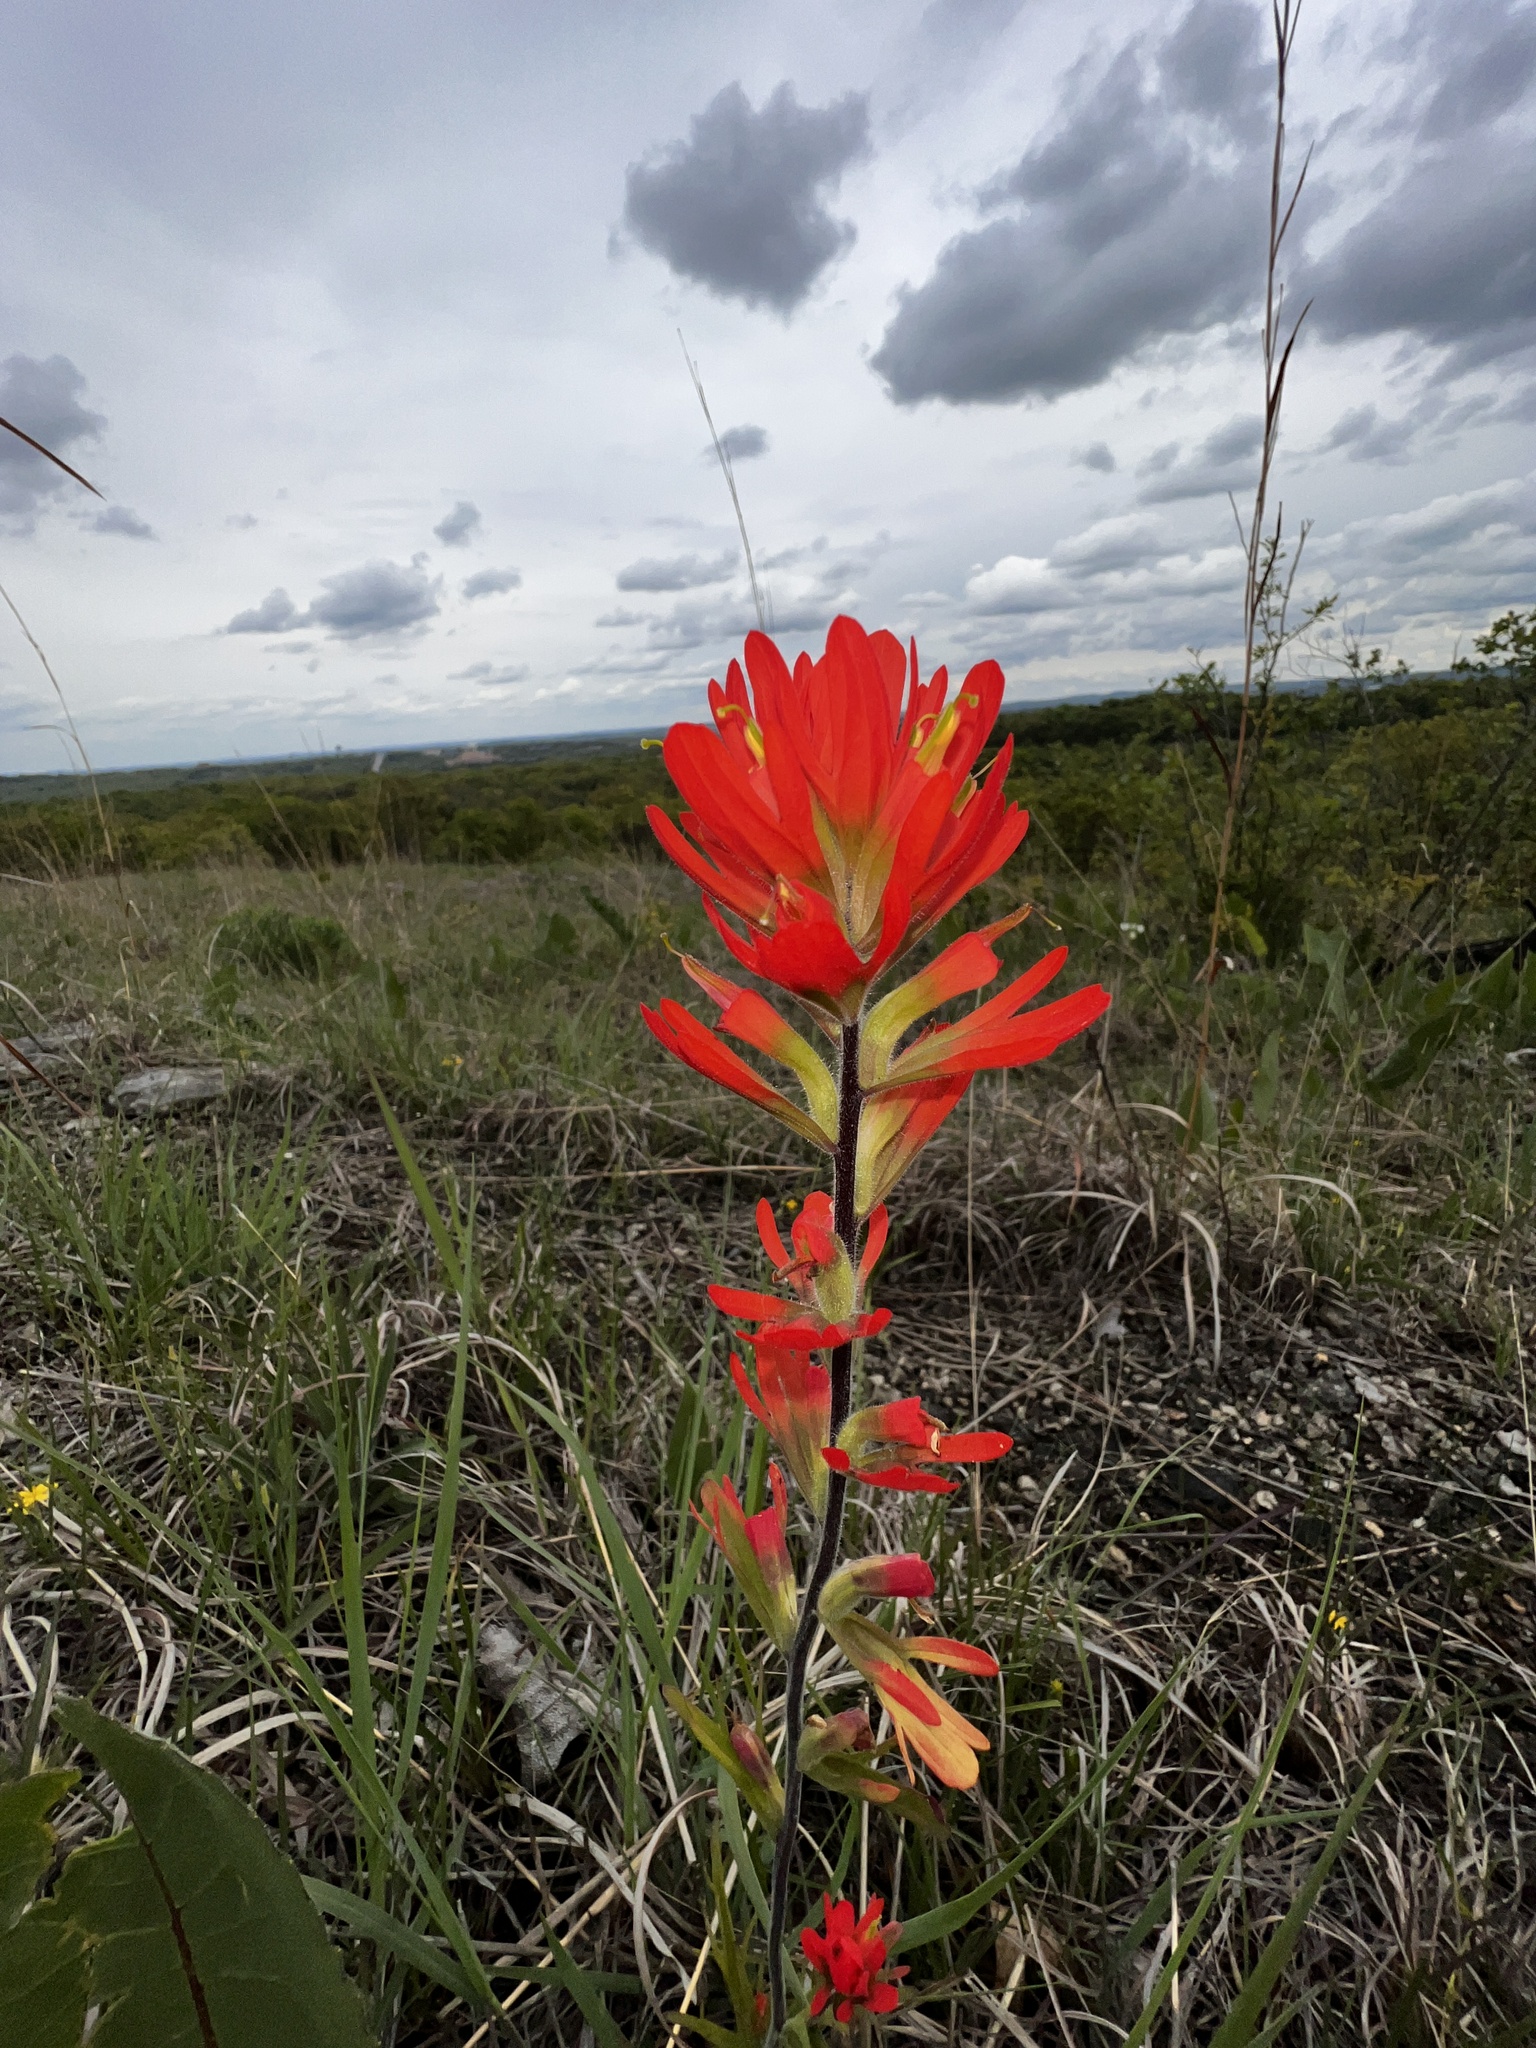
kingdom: Plantae
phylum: Tracheophyta
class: Magnoliopsida
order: Lamiales
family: Orobanchaceae
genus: Castilleja
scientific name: Castilleja coccinea
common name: Scarlet paintbrush
